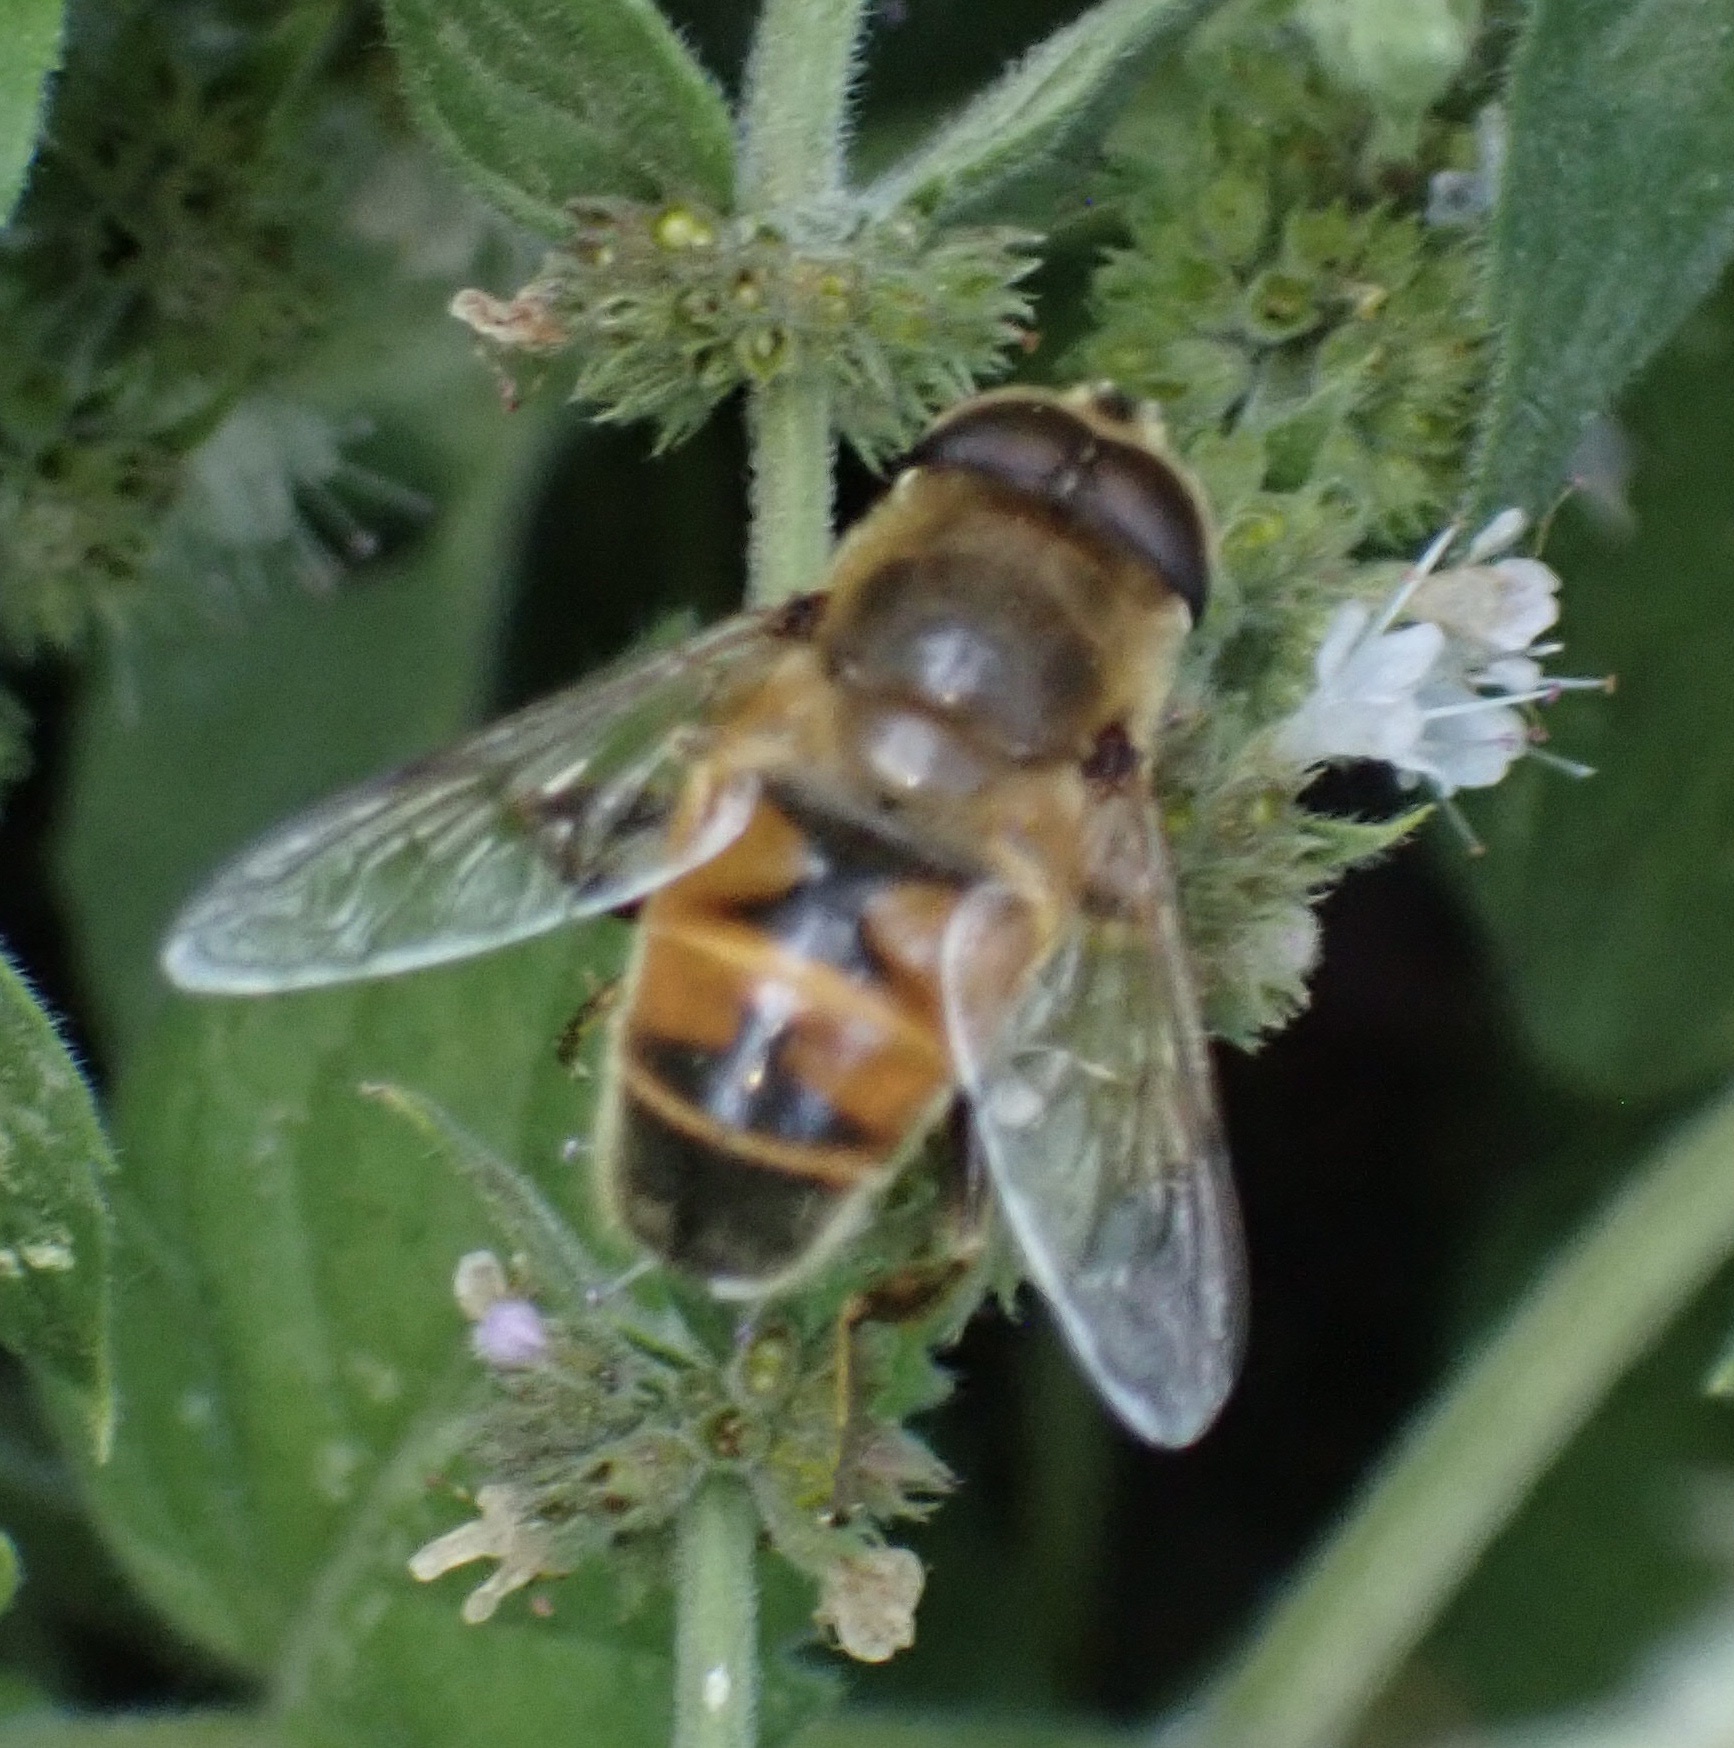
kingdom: Animalia
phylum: Arthropoda
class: Insecta
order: Diptera
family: Syrphidae
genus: Eristalis
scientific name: Eristalis tenax
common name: Drone fly
